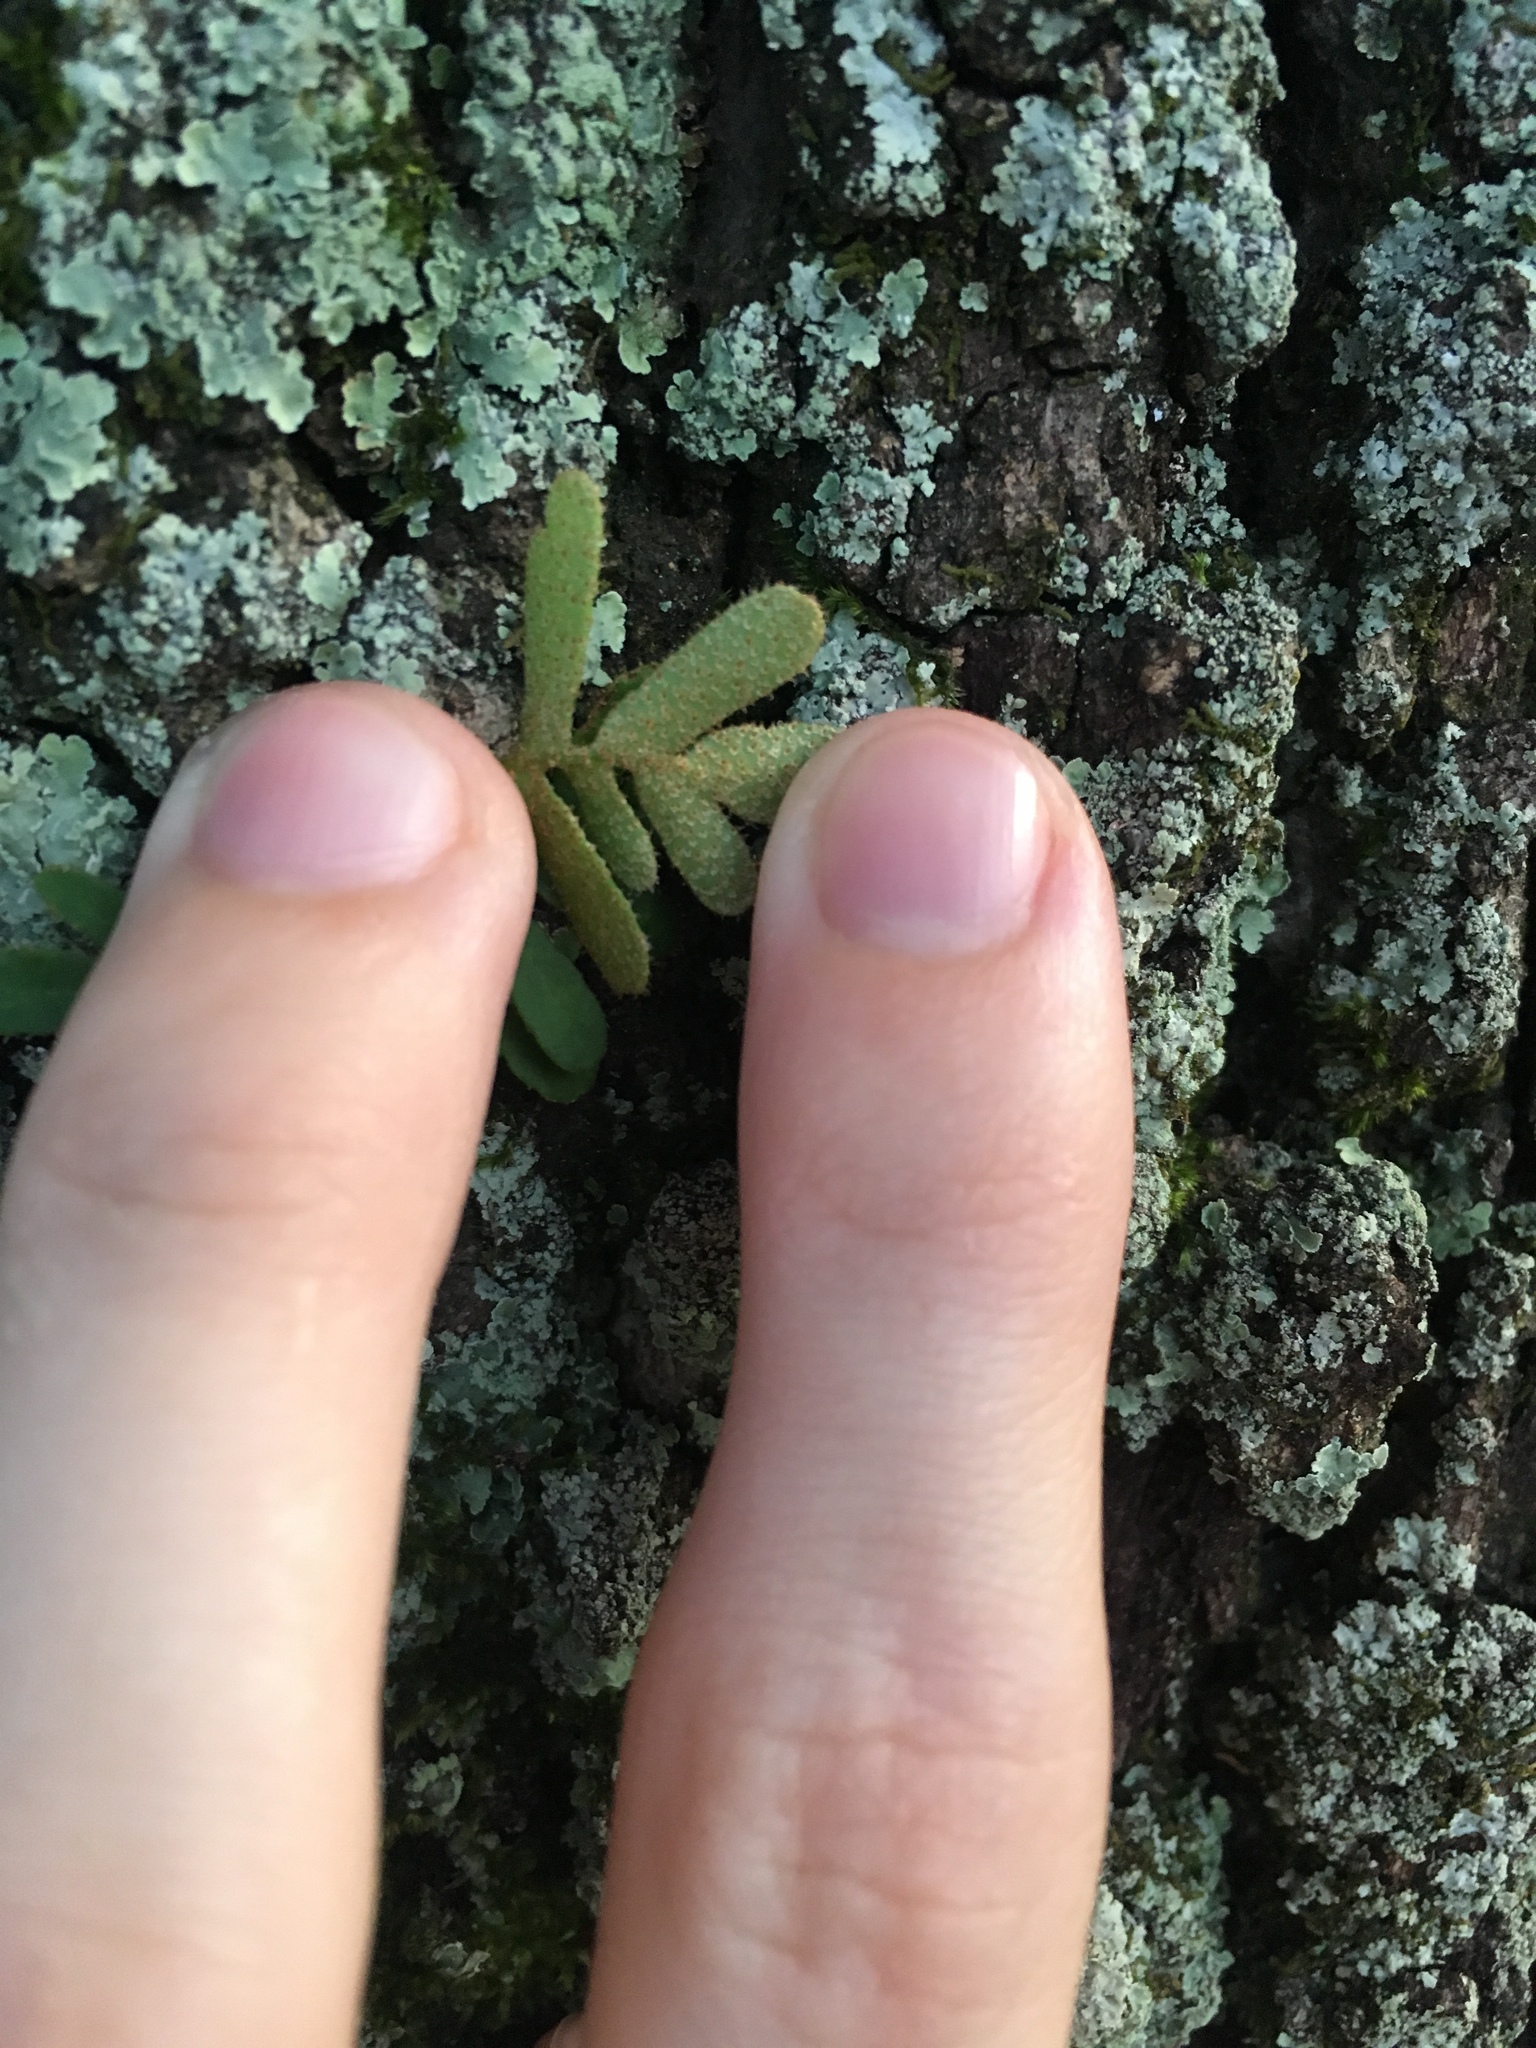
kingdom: Plantae
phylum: Tracheophyta
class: Polypodiopsida
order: Polypodiales
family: Polypodiaceae
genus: Pleopeltis
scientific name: Pleopeltis michauxiana
